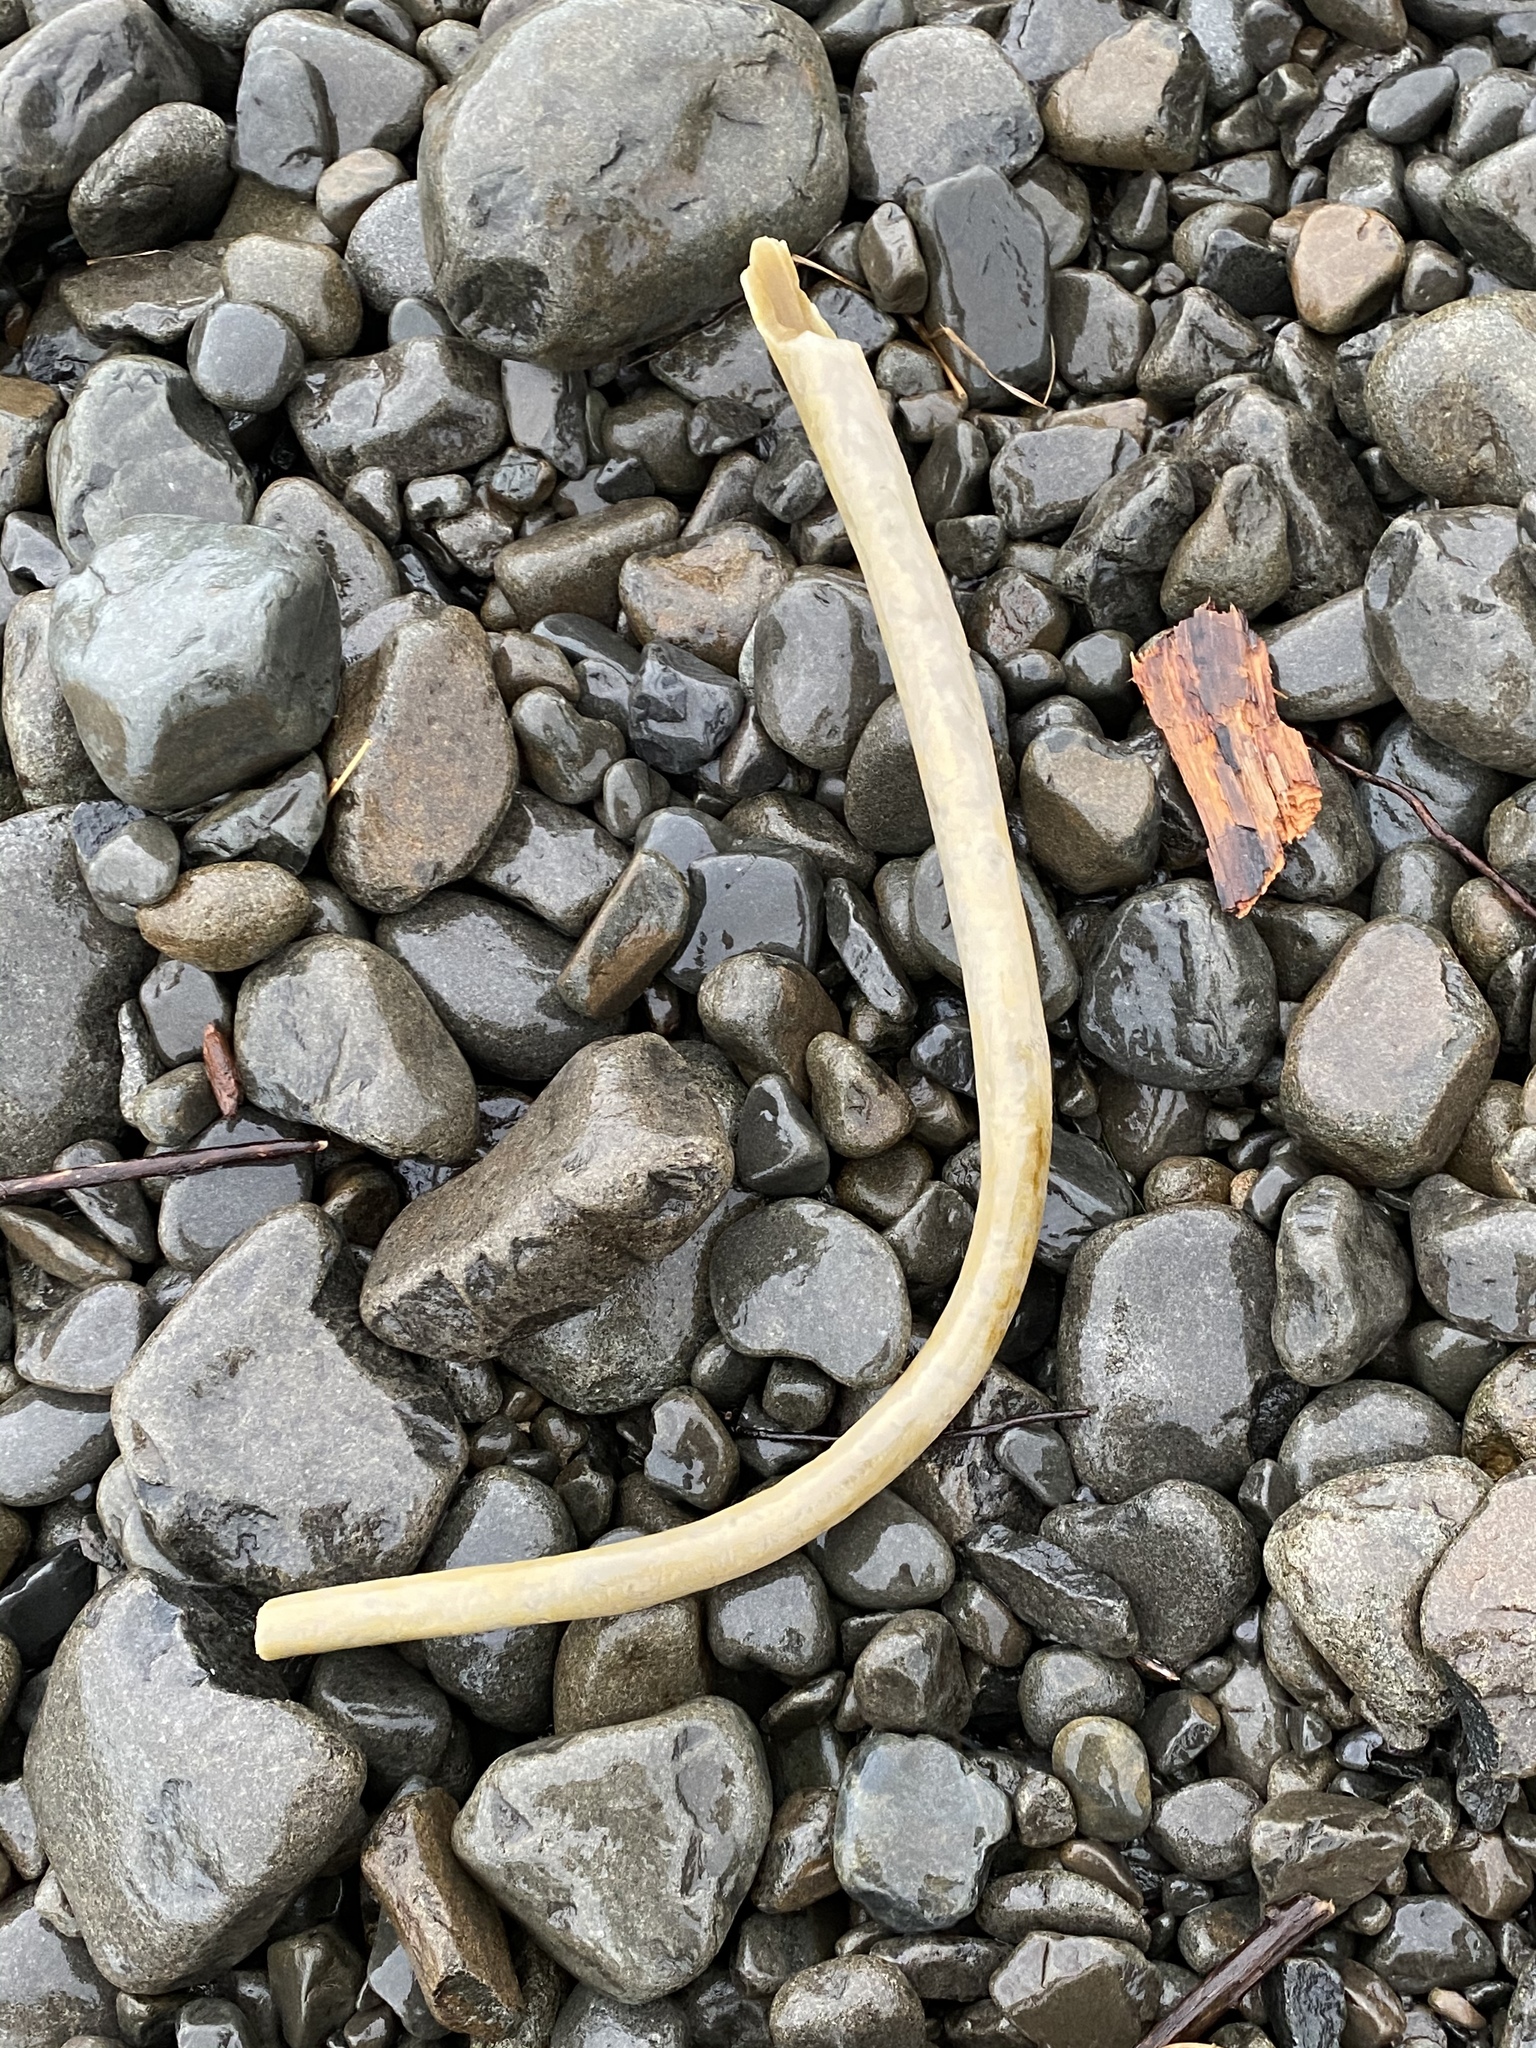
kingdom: Chromista
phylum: Ochrophyta
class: Phaeophyceae
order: Laminariales
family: Laminariaceae
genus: Nereocystis
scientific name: Nereocystis luetkeana
